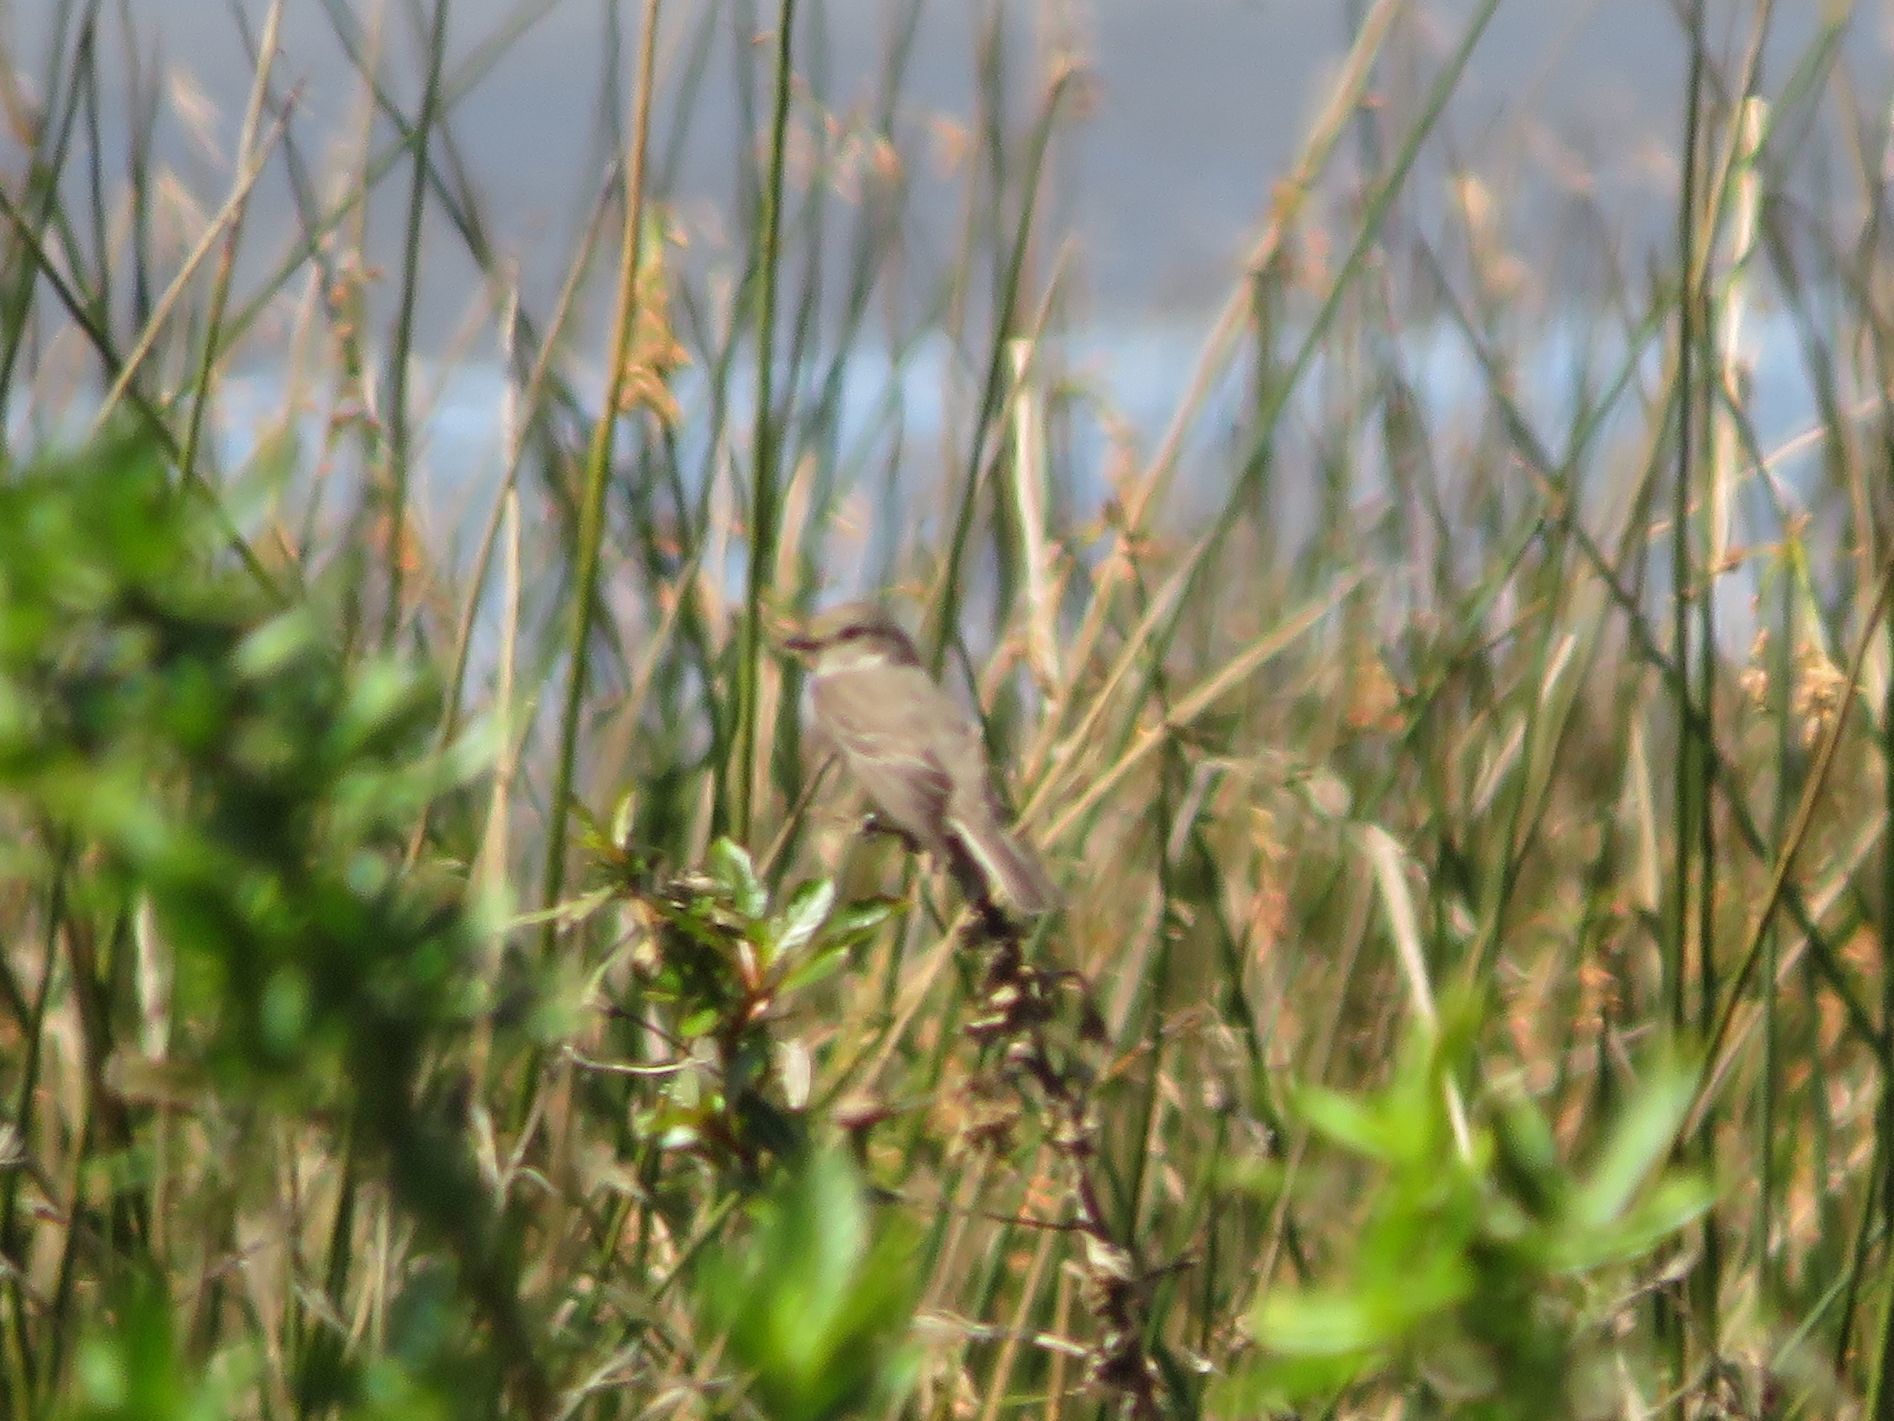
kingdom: Animalia
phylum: Chordata
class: Aves
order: Passeriformes
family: Tyrannidae
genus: Pyrocephalus
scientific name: Pyrocephalus rubinus
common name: Vermilion flycatcher
